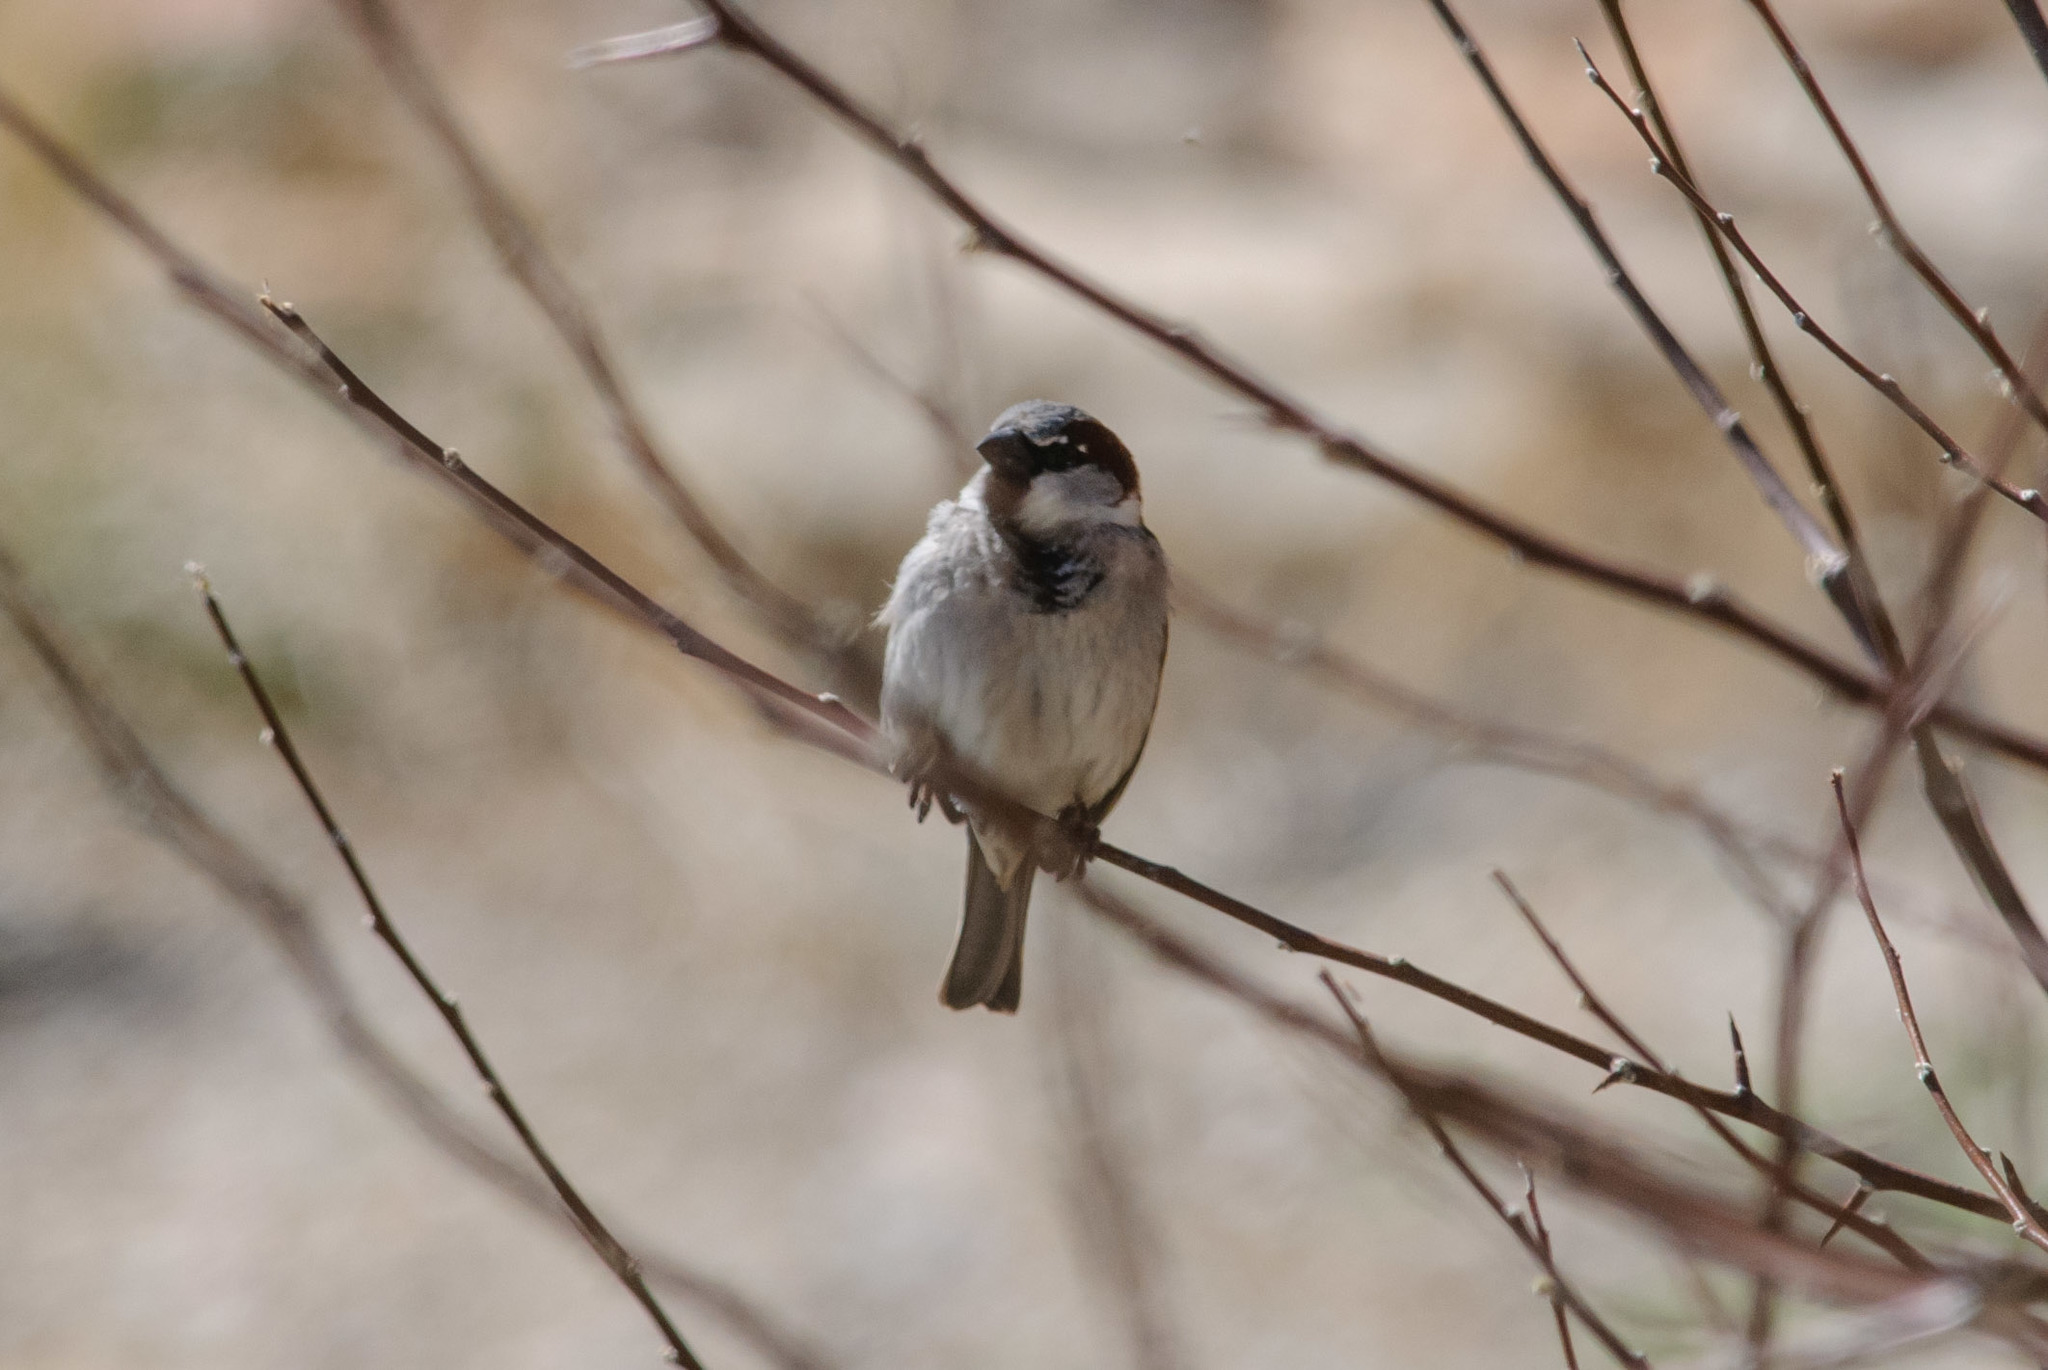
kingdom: Animalia
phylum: Chordata
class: Aves
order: Passeriformes
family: Passeridae
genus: Passer
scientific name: Passer domesticus
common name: House sparrow
